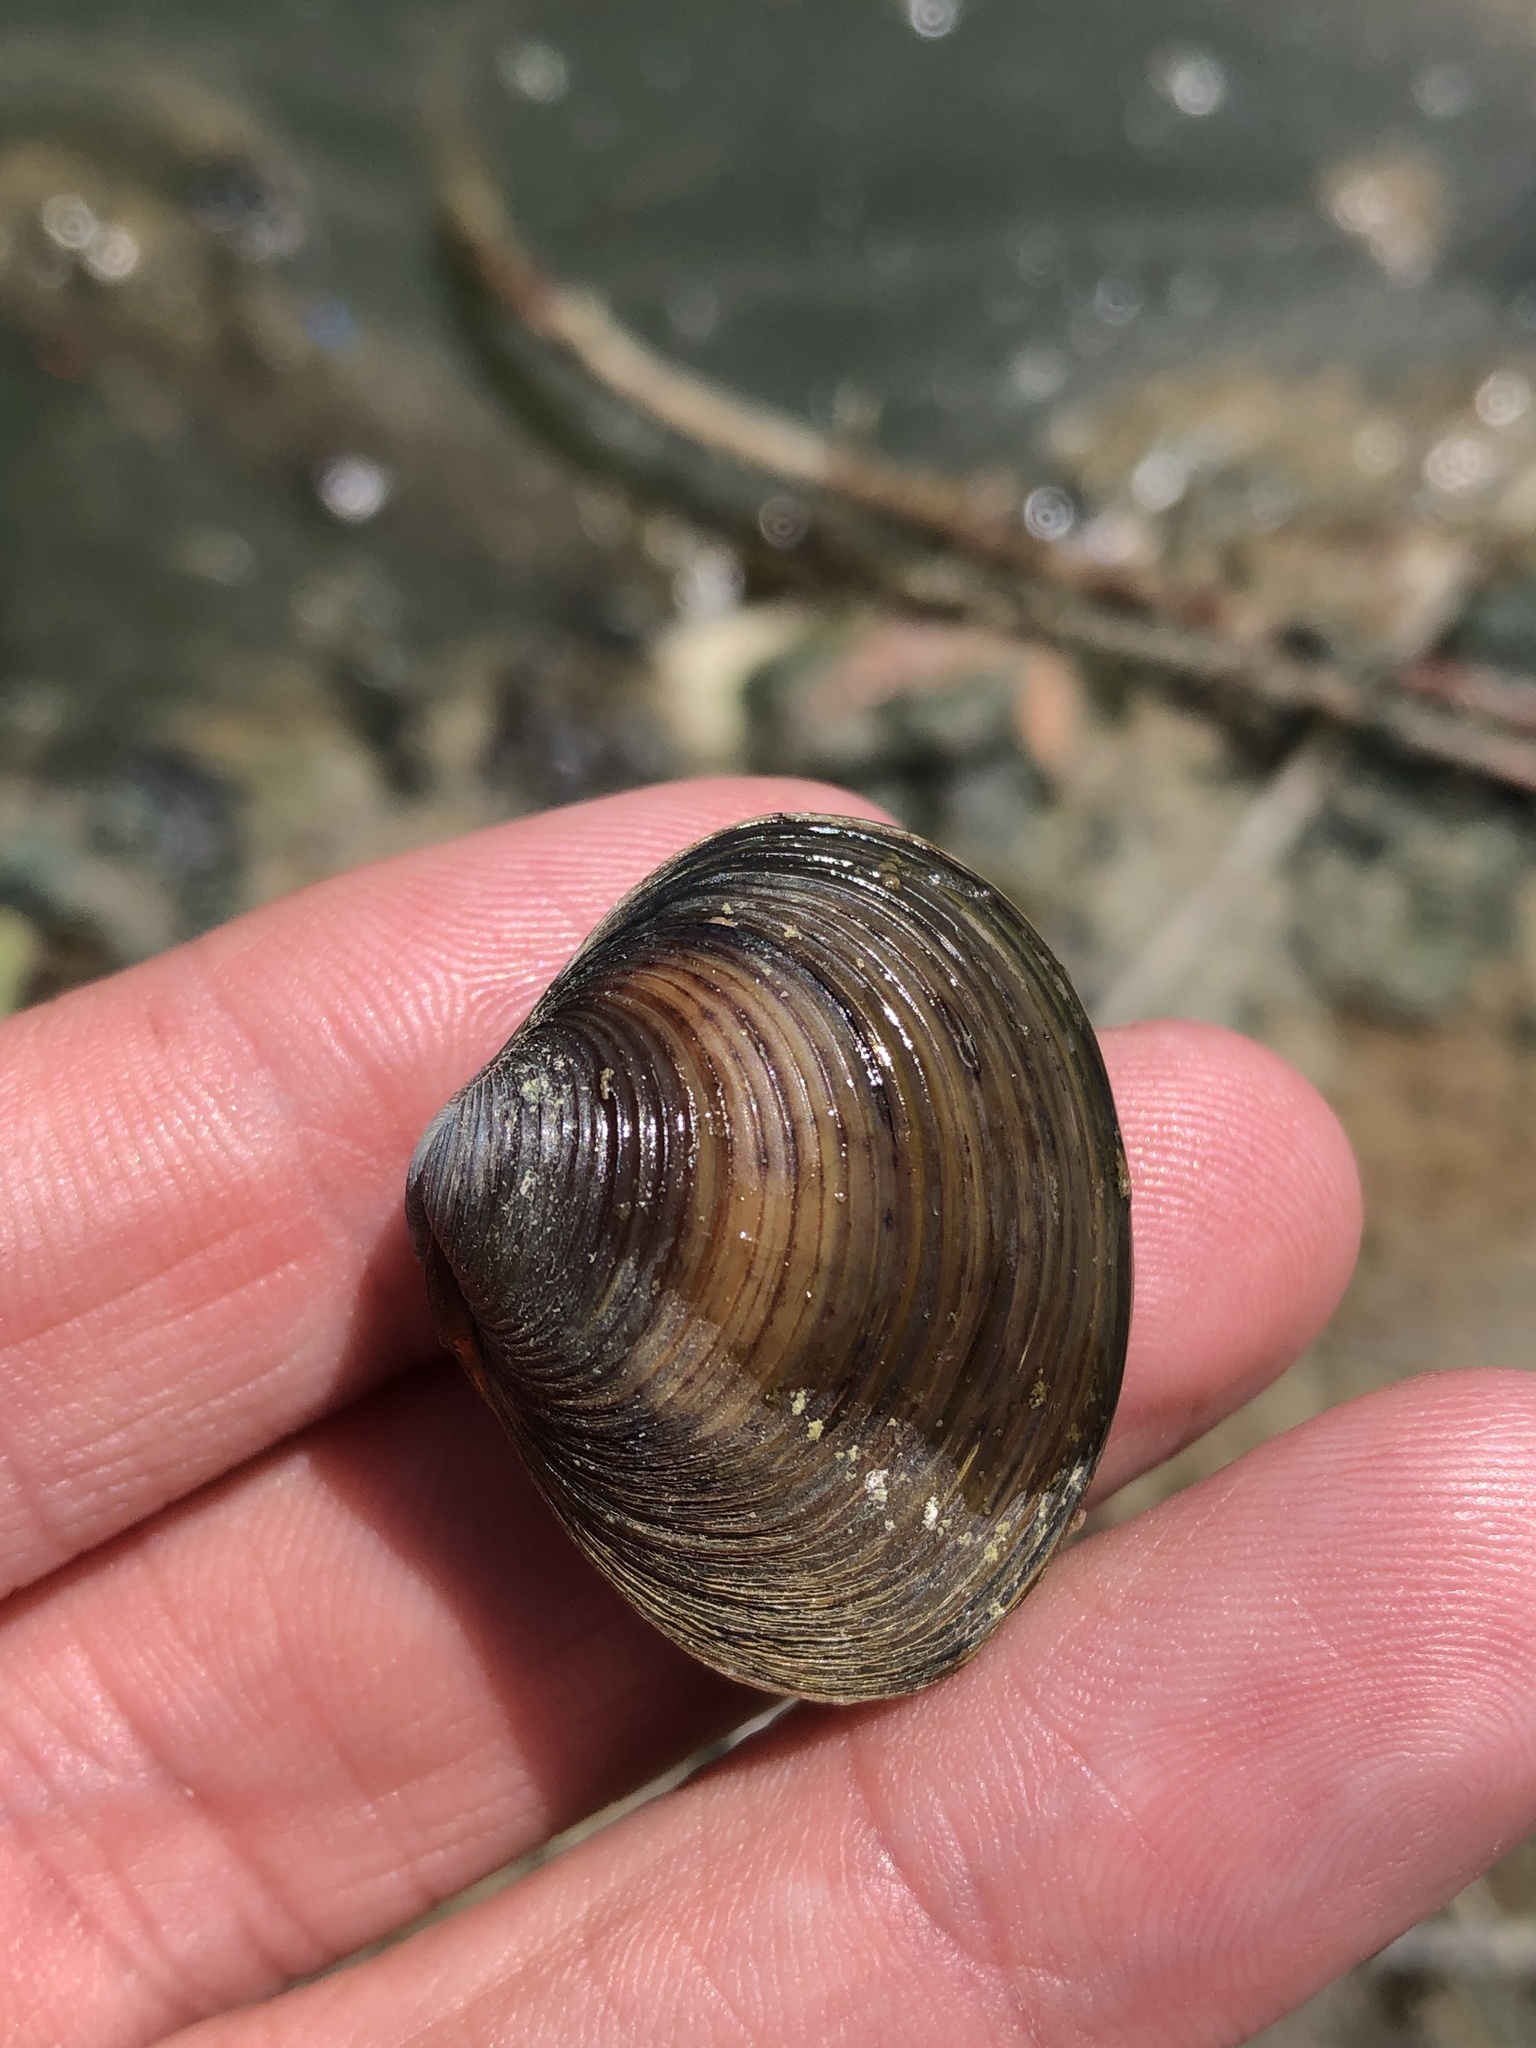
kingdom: Animalia
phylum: Mollusca
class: Bivalvia
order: Venerida
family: Cyrenidae
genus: Corbicula
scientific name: Corbicula fluminea
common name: Asian clam
